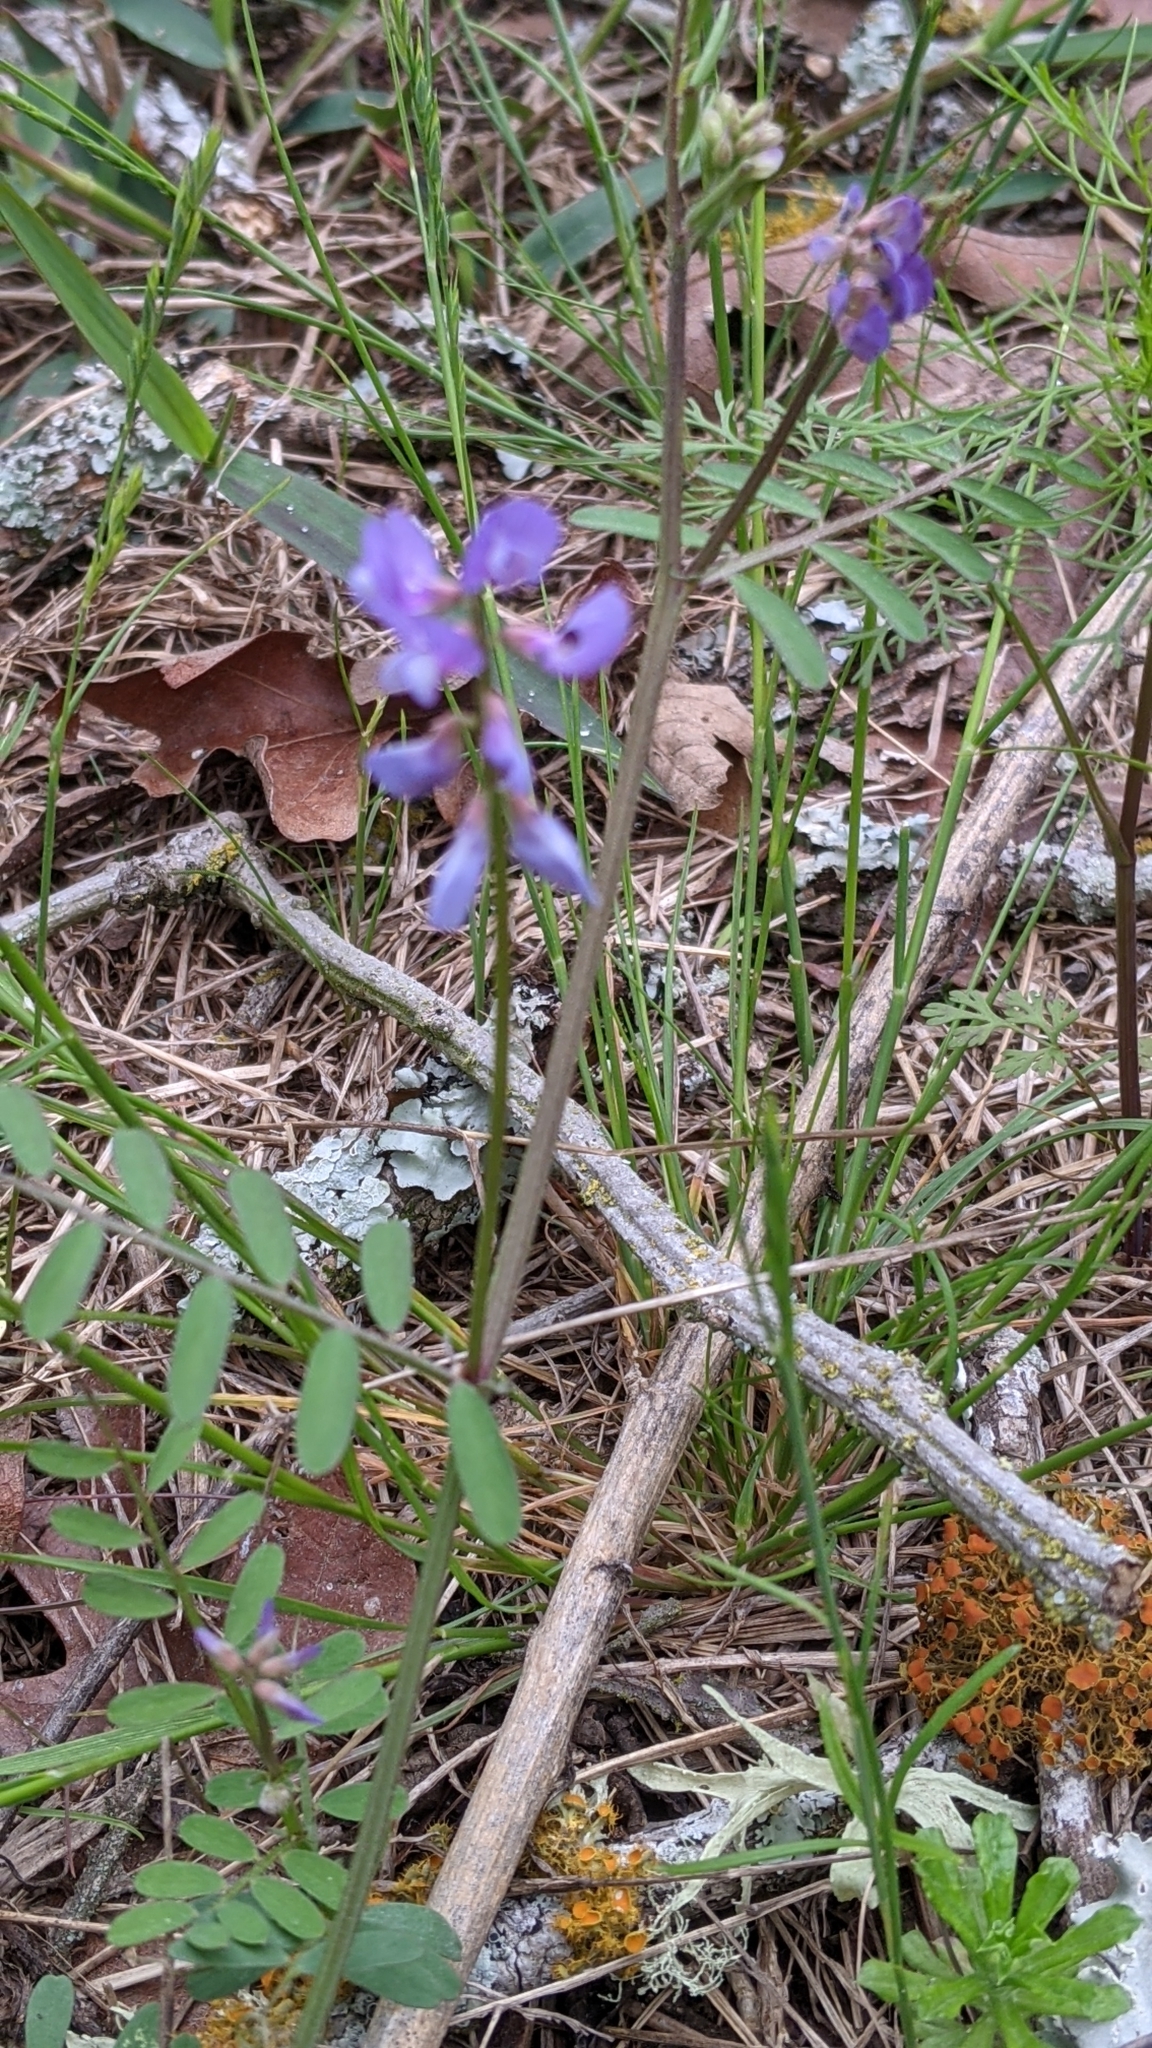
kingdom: Plantae
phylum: Tracheophyta
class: Magnoliopsida
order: Fabales
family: Fabaceae
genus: Vicia
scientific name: Vicia ludoviciana
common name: Louisiana vetch
